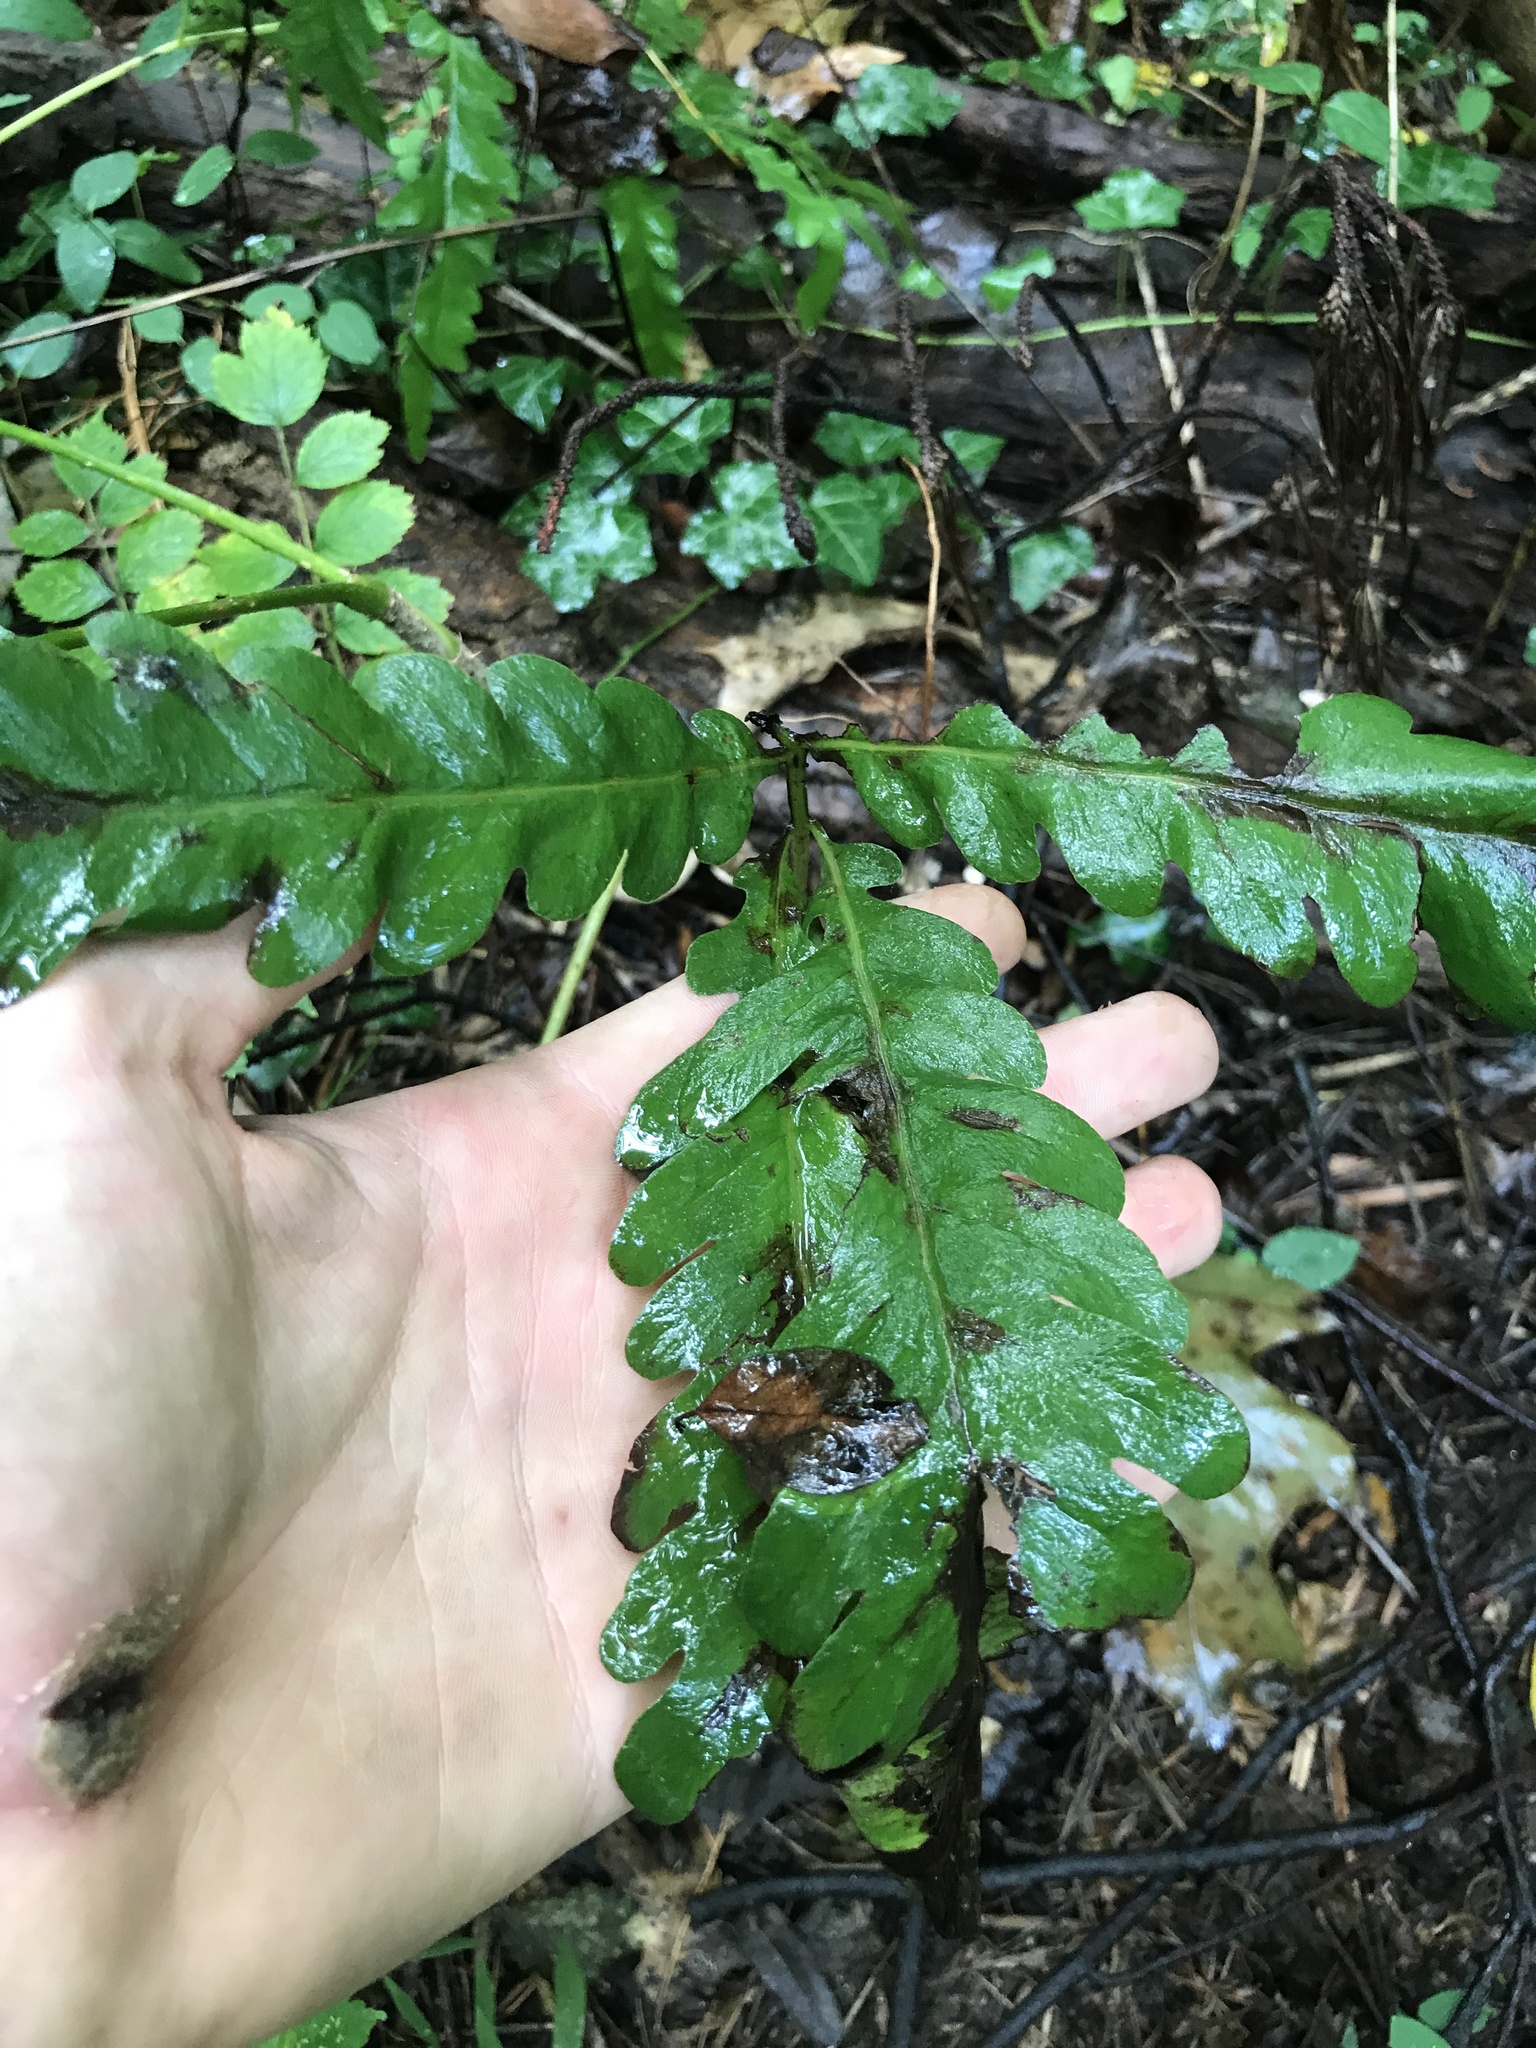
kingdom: Plantae
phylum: Tracheophyta
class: Magnoliopsida
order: Fagales
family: Myricaceae
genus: Comptonia
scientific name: Comptonia peregrina
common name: Sweet-fern
